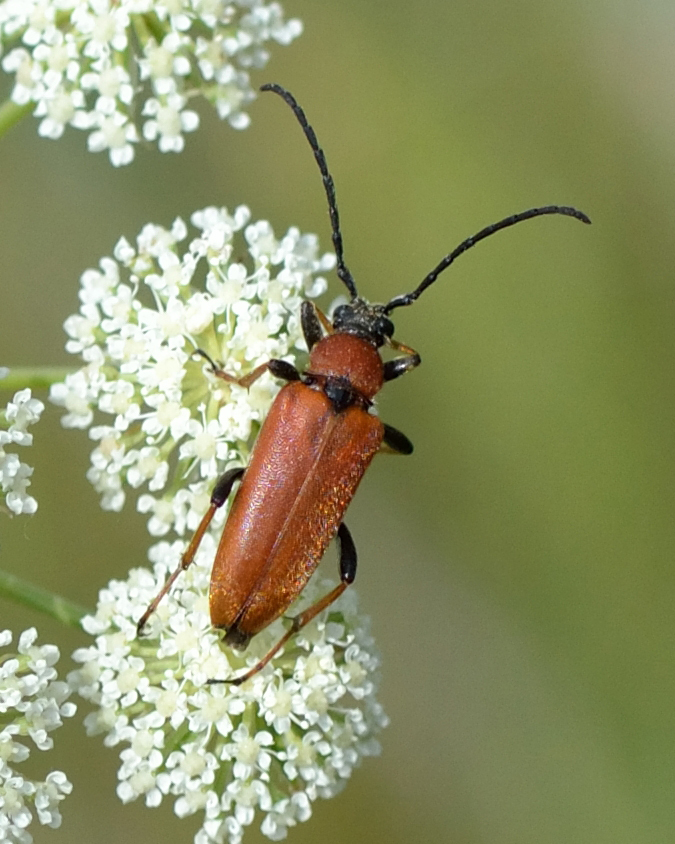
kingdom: Animalia
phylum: Arthropoda
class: Insecta
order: Coleoptera
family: Cerambycidae
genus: Stictoleptura
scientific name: Stictoleptura rubra
